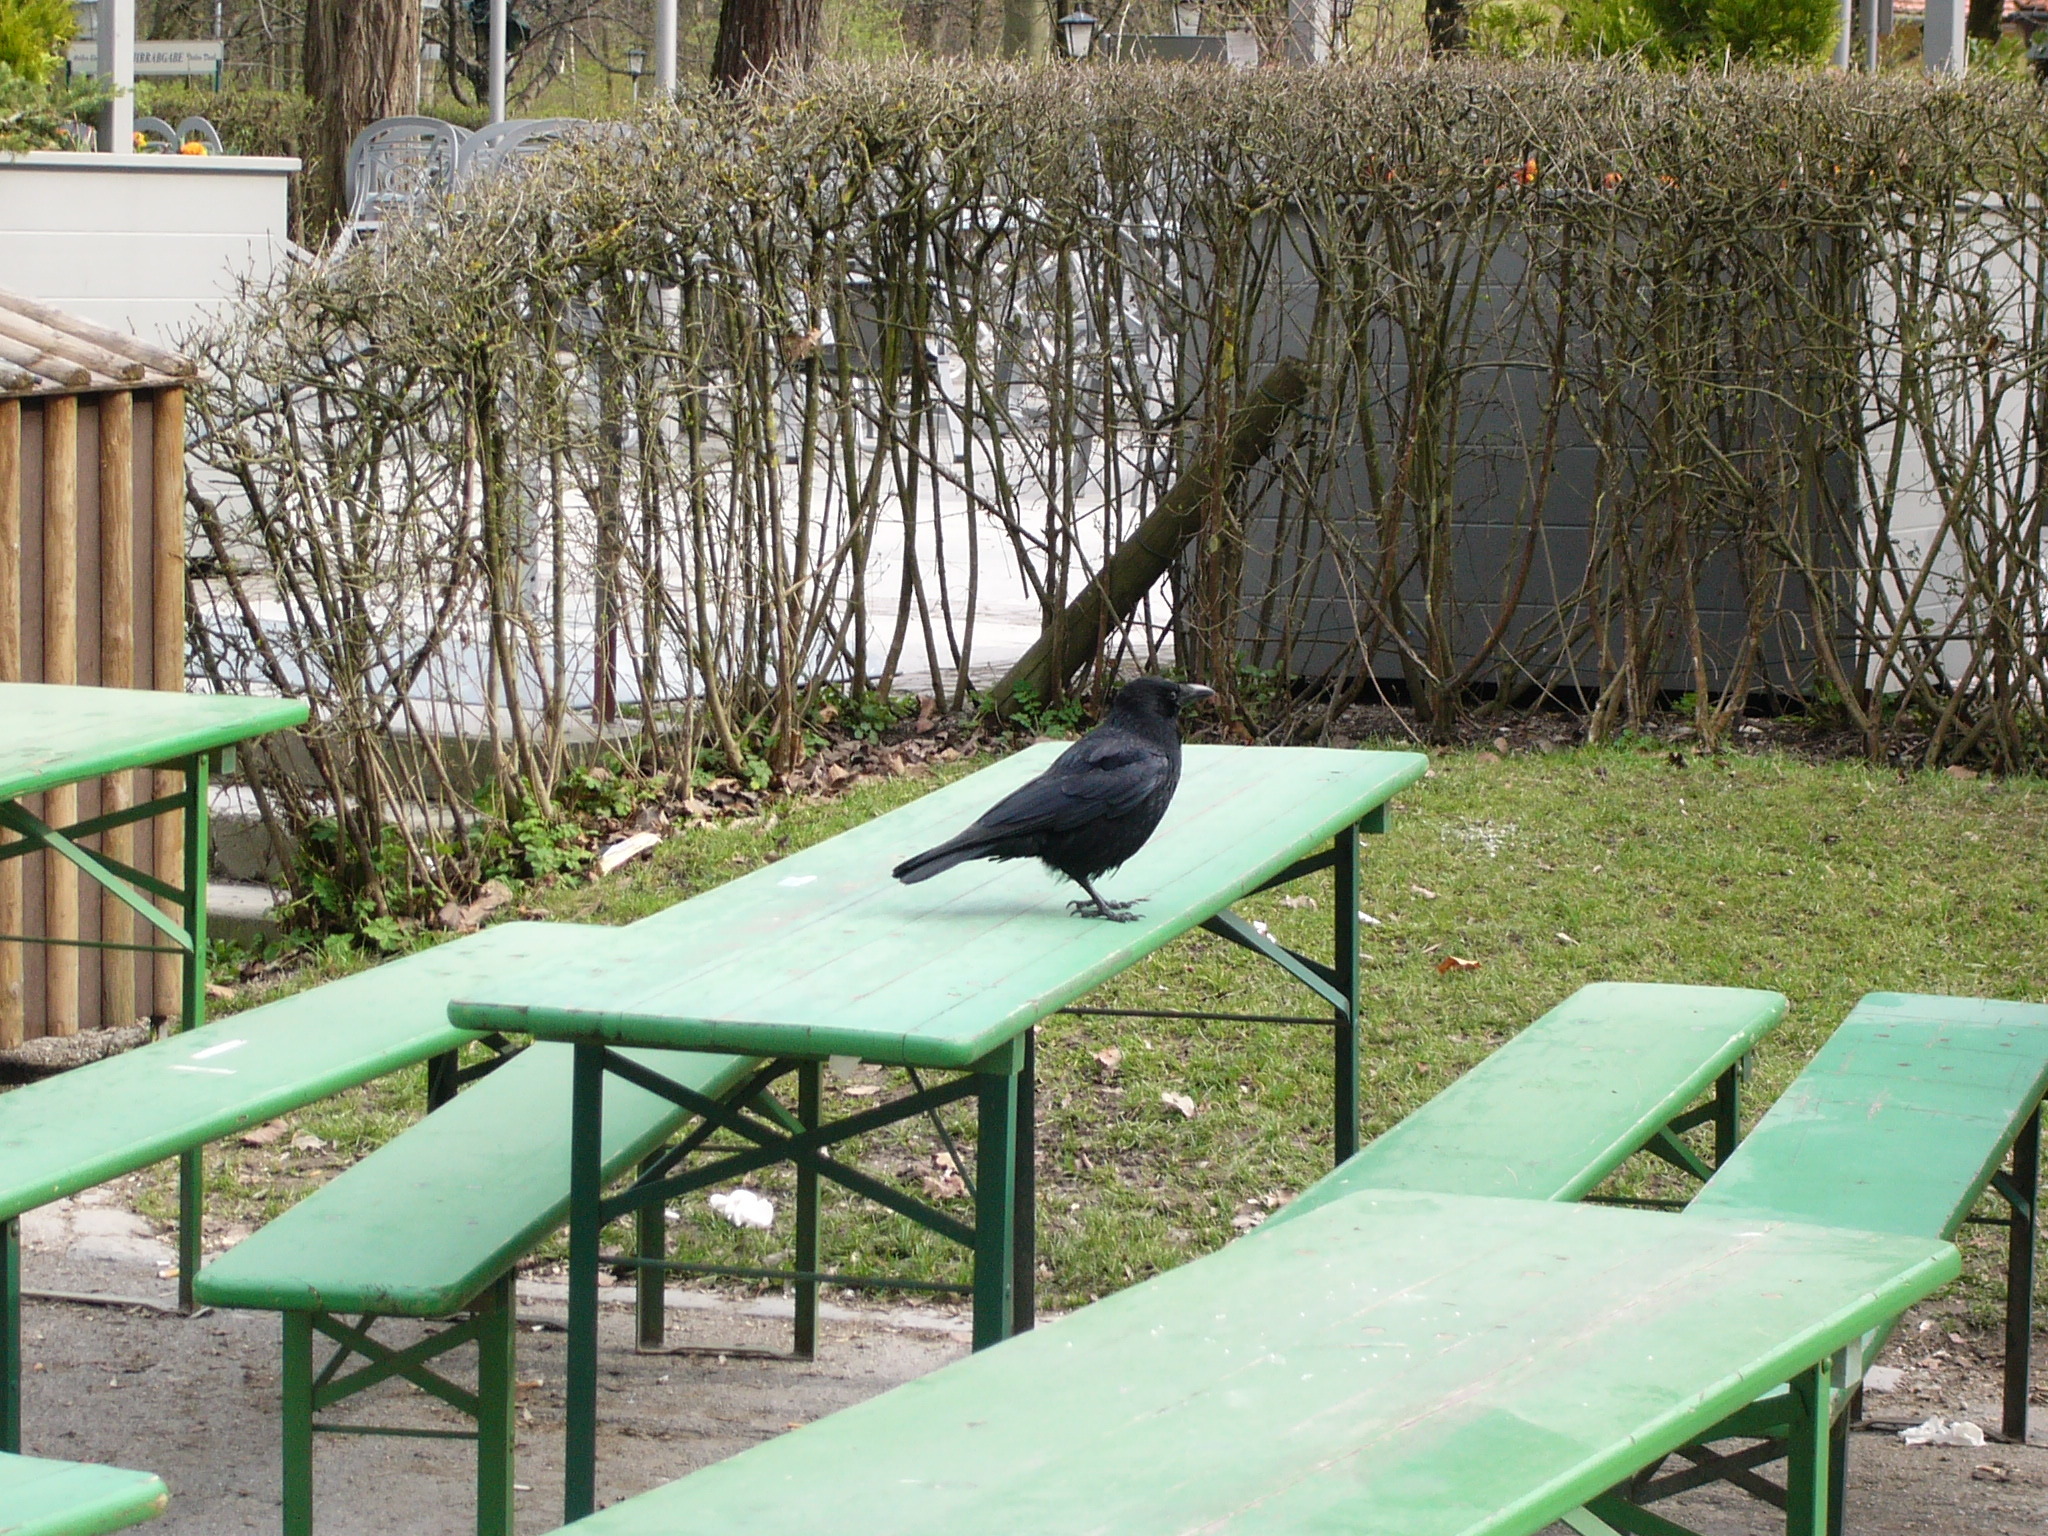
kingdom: Animalia
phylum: Chordata
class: Aves
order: Passeriformes
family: Corvidae
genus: Corvus
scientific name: Corvus corone
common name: Carrion crow
